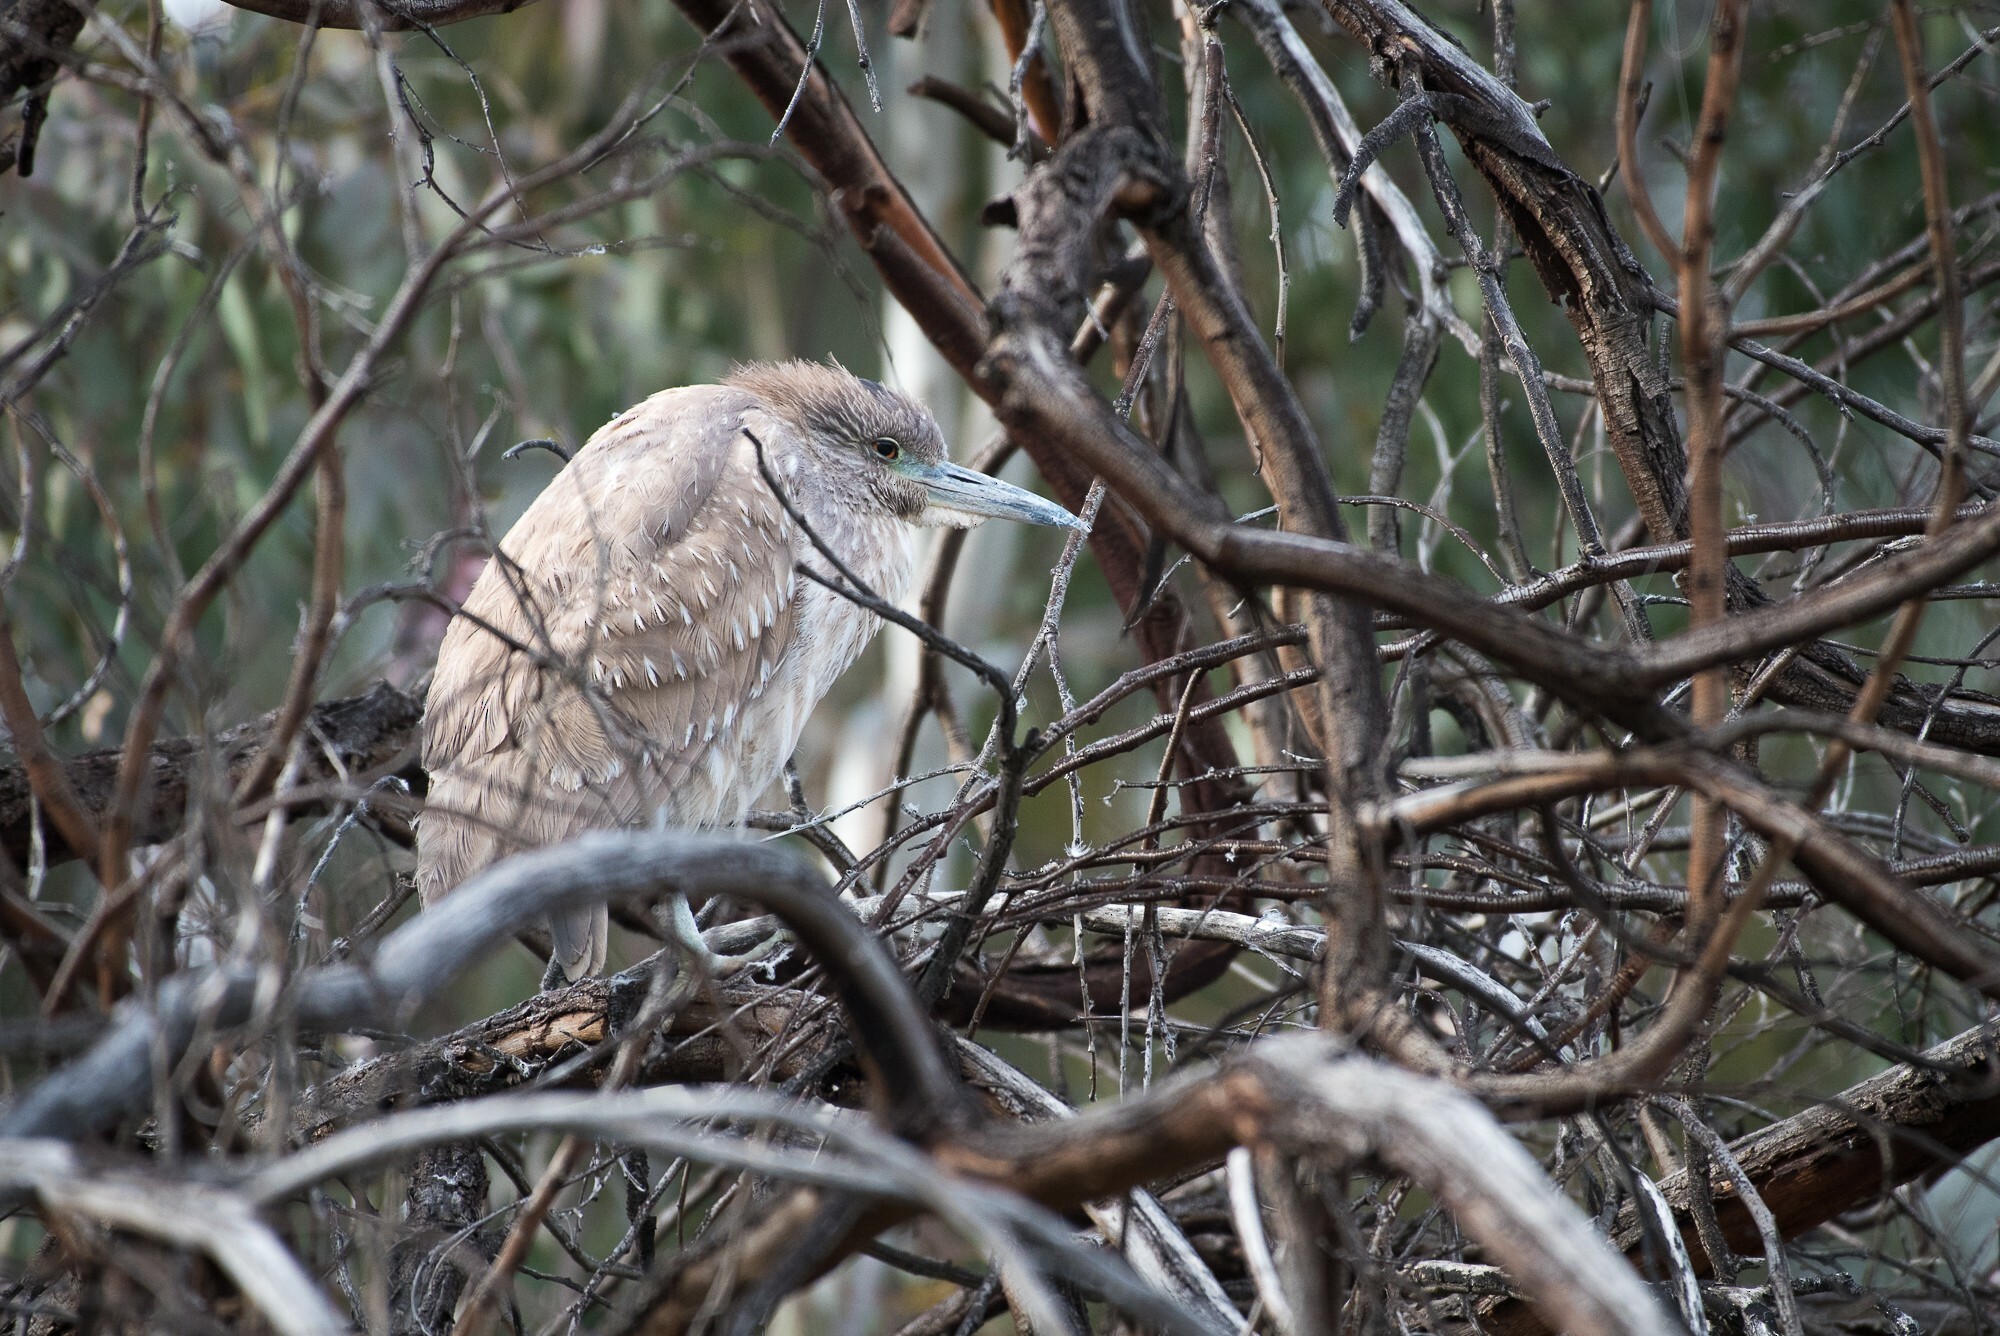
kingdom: Animalia
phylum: Chordata
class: Aves
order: Pelecaniformes
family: Ardeidae
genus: Nycticorax
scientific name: Nycticorax nycticorax
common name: Black-crowned night heron
